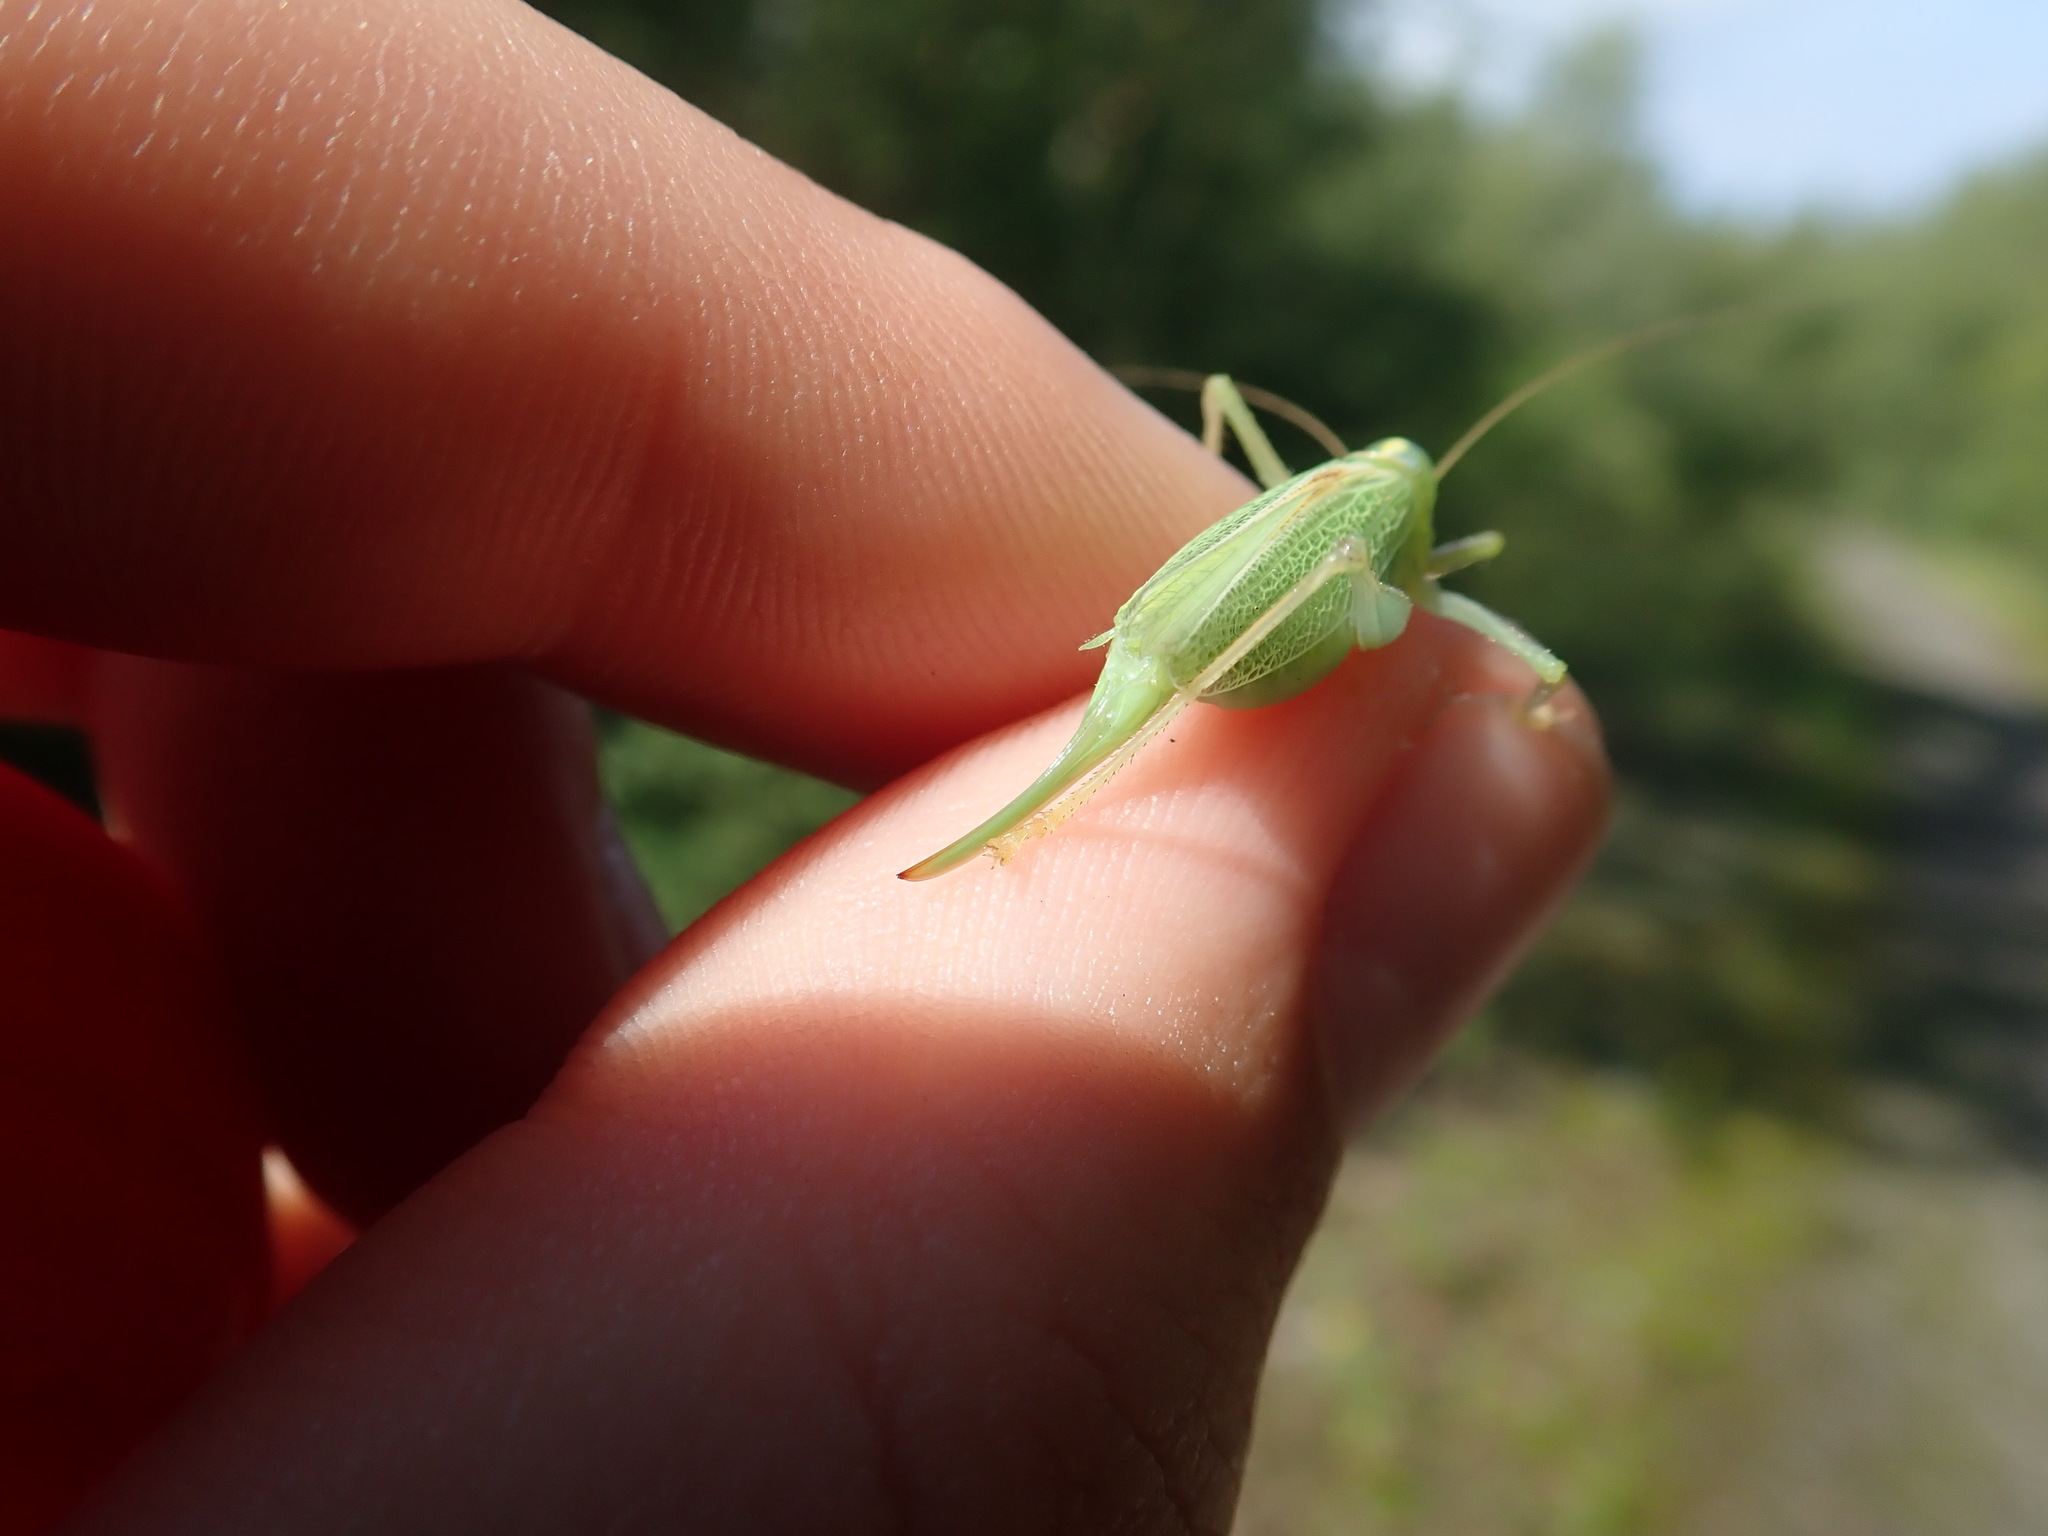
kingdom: Animalia
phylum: Arthropoda
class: Insecta
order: Orthoptera
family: Tettigoniidae
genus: Meconema
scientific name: Meconema thalassinum
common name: Oak bush-cricket
